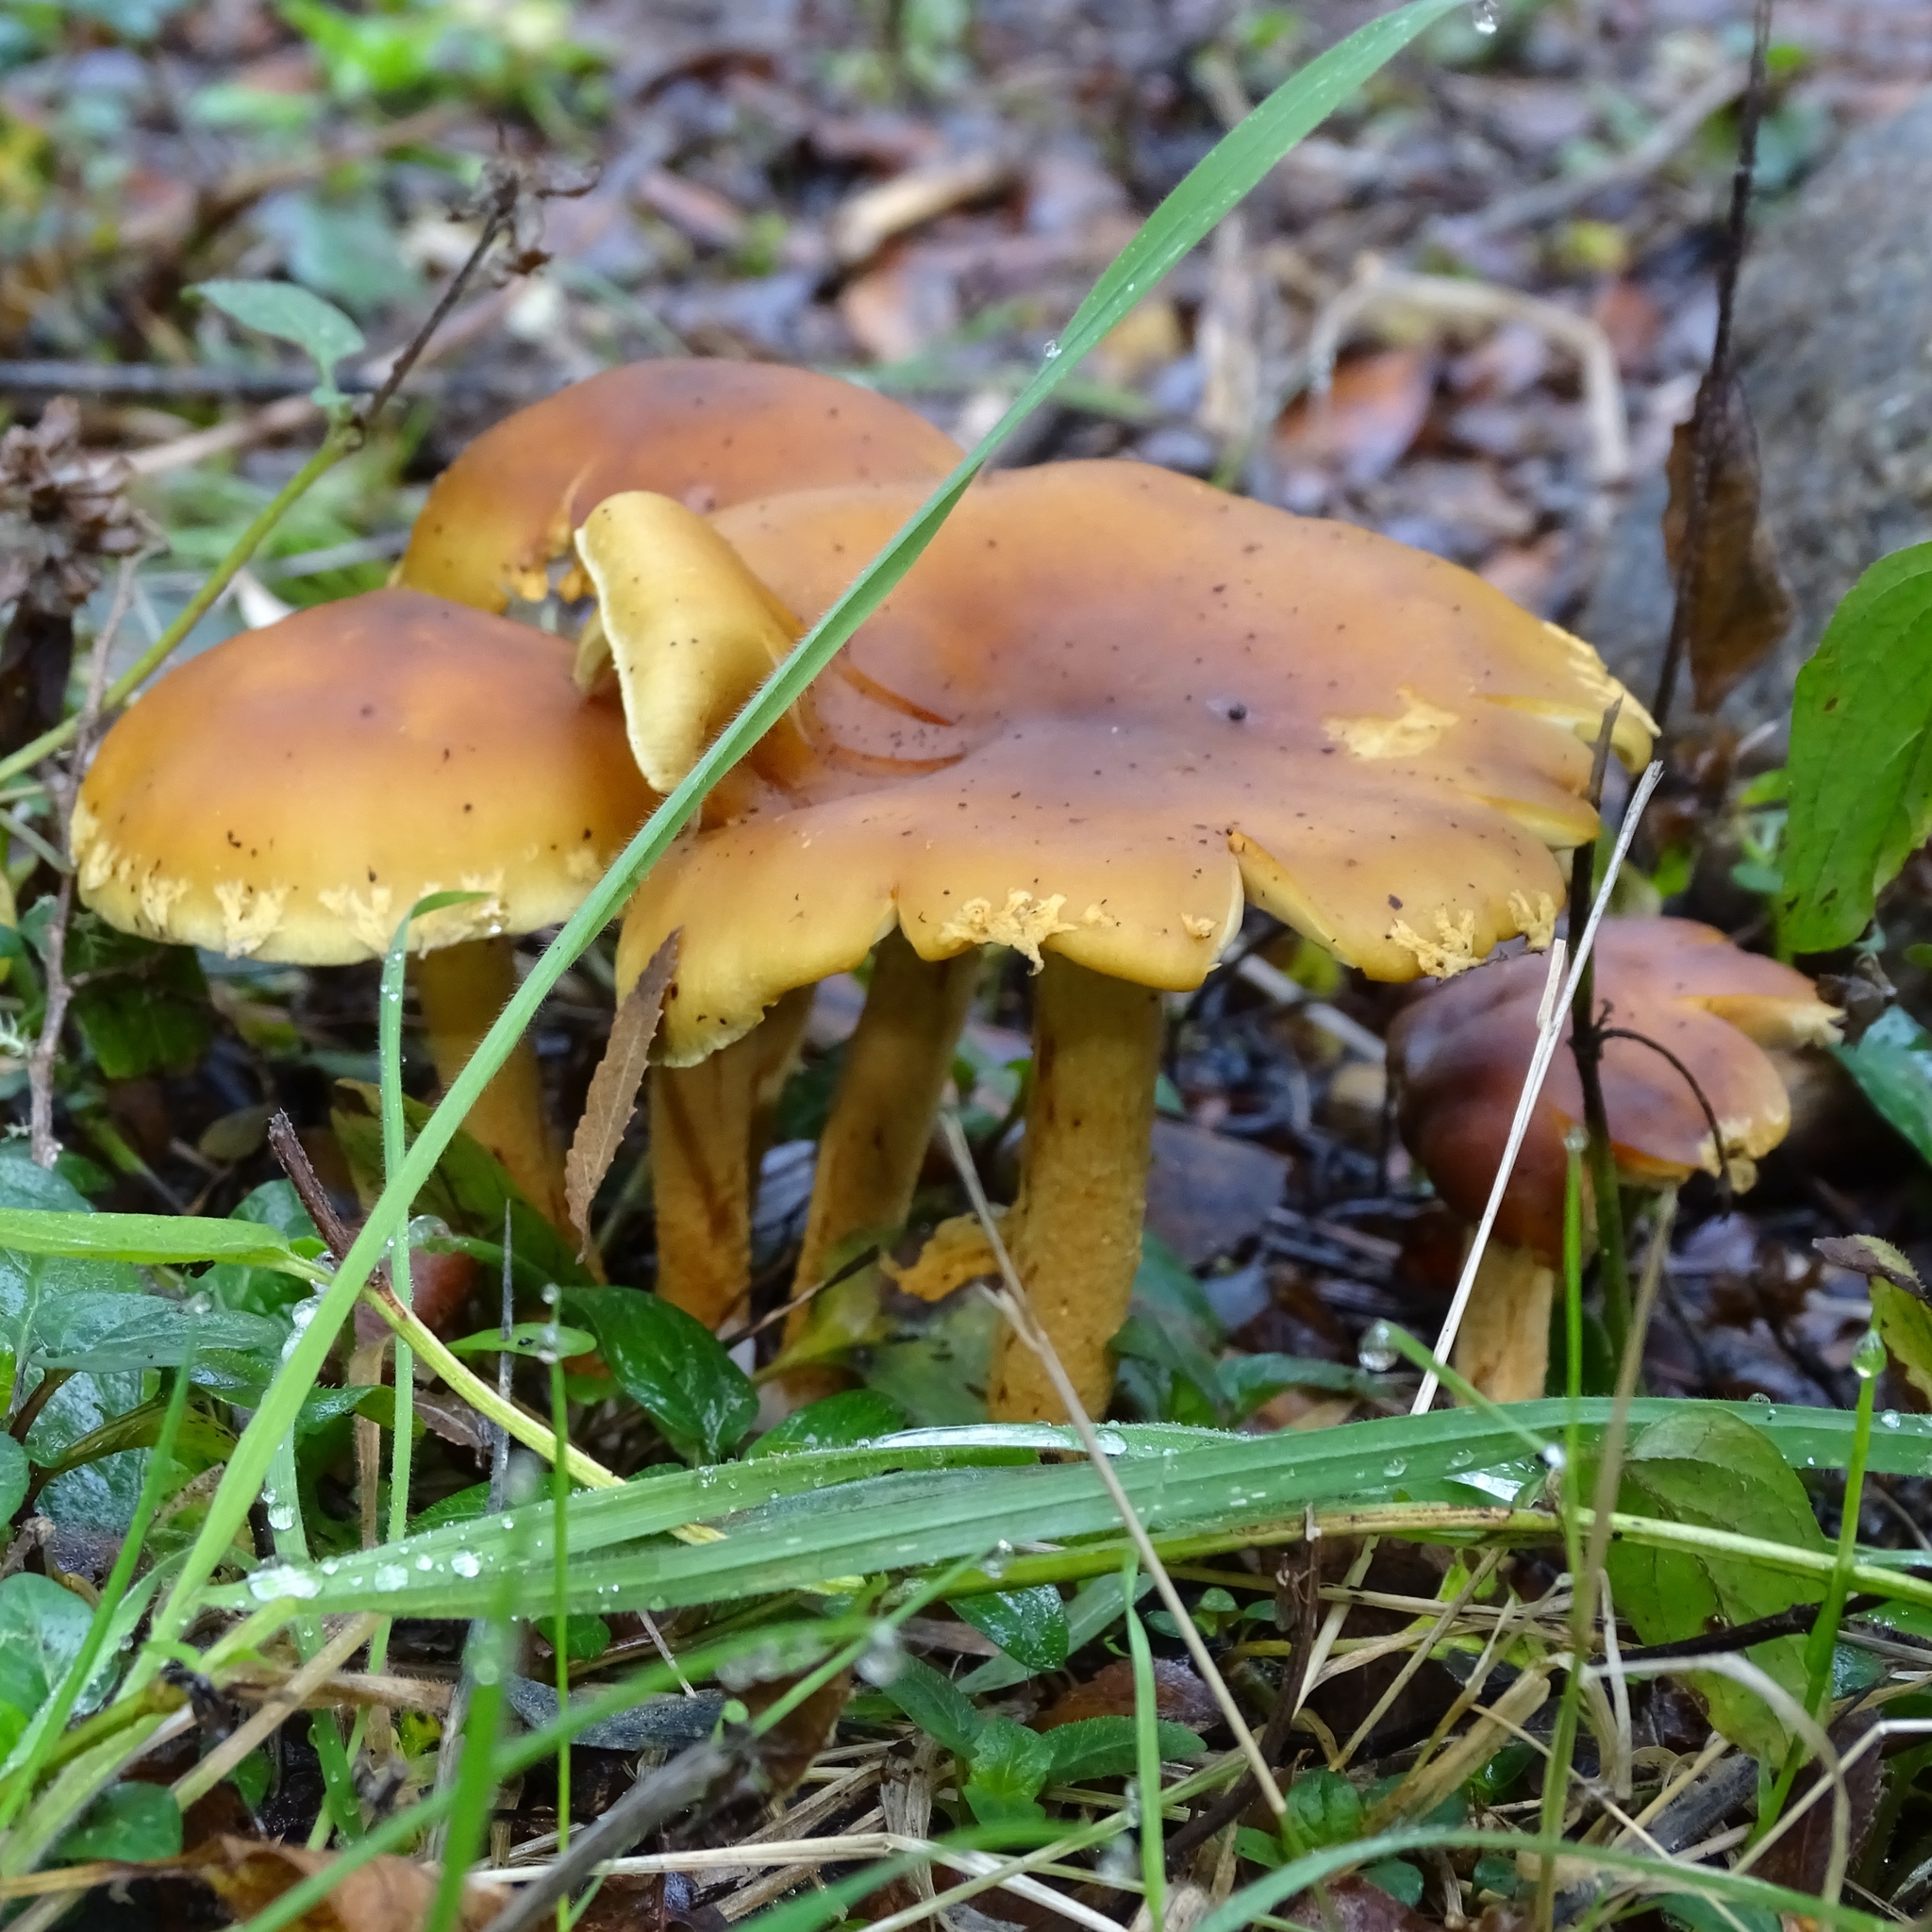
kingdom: Fungi
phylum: Basidiomycota
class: Agaricomycetes
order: Agaricales
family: Hymenogastraceae
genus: Gymnopilus
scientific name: Gymnopilus sapineus
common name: Scaly rustgill
